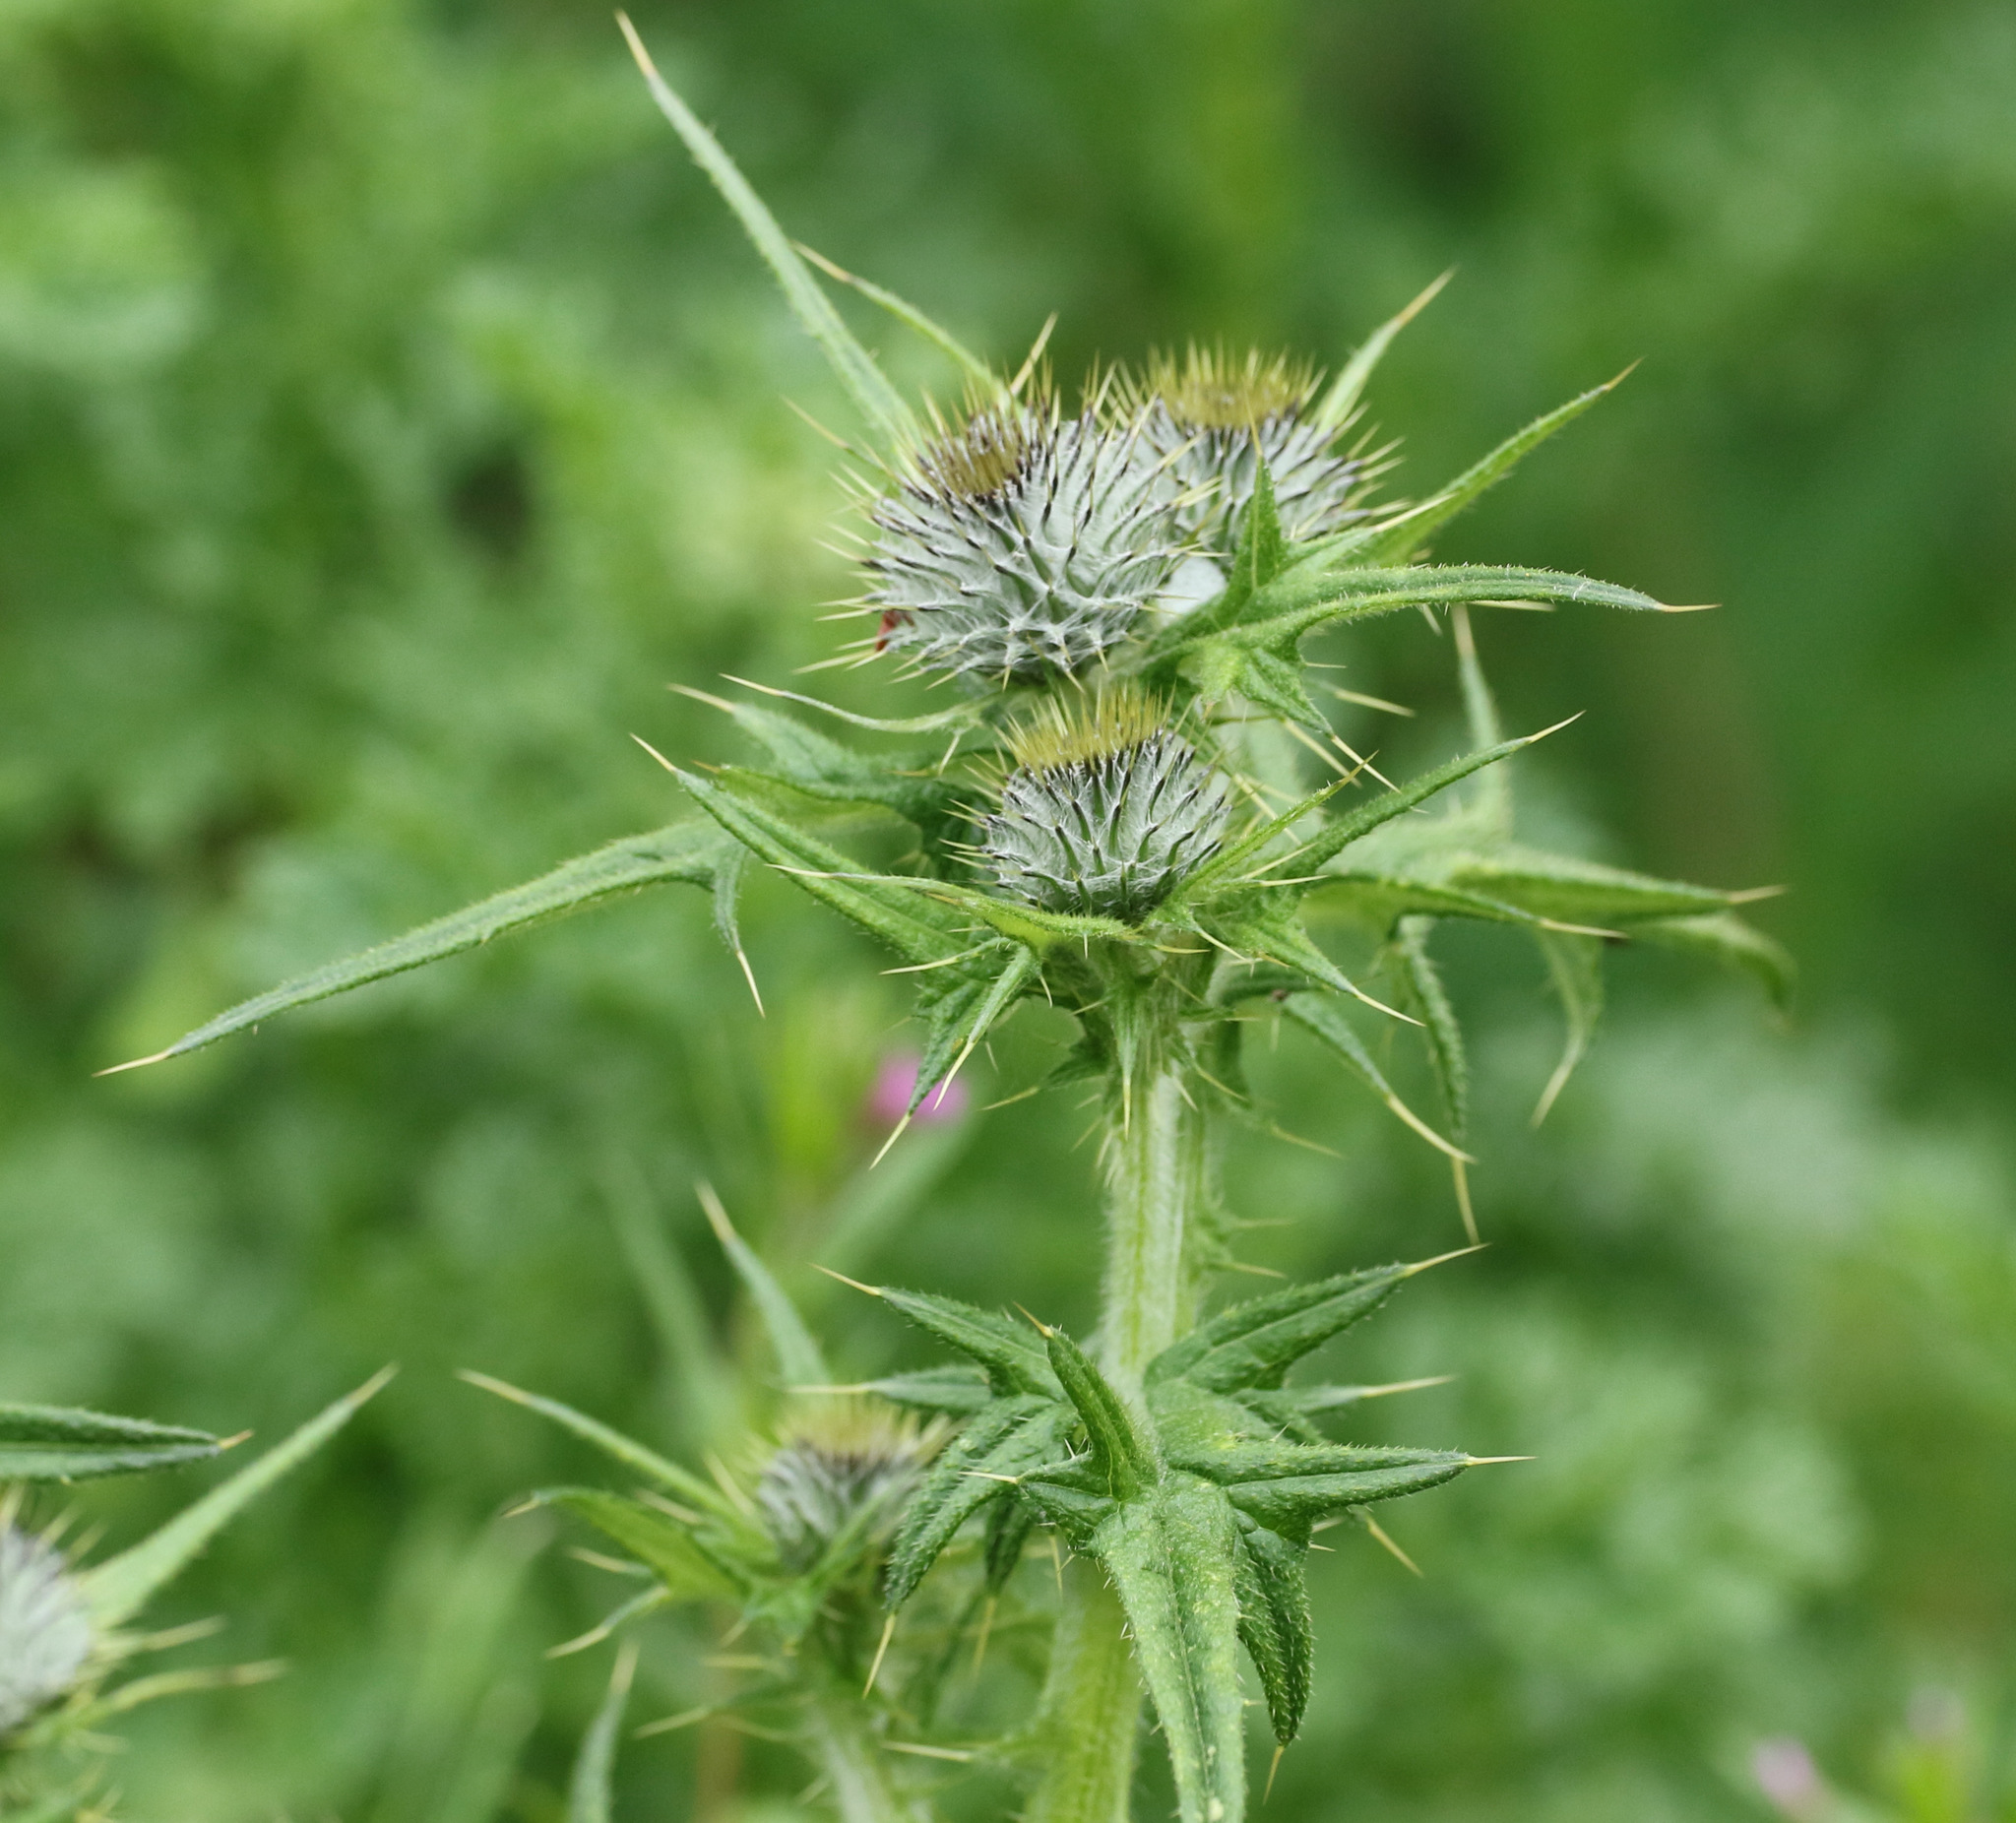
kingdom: Plantae
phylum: Tracheophyta
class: Magnoliopsida
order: Asterales
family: Asteraceae
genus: Cirsium
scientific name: Cirsium vulgare
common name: Bull thistle
